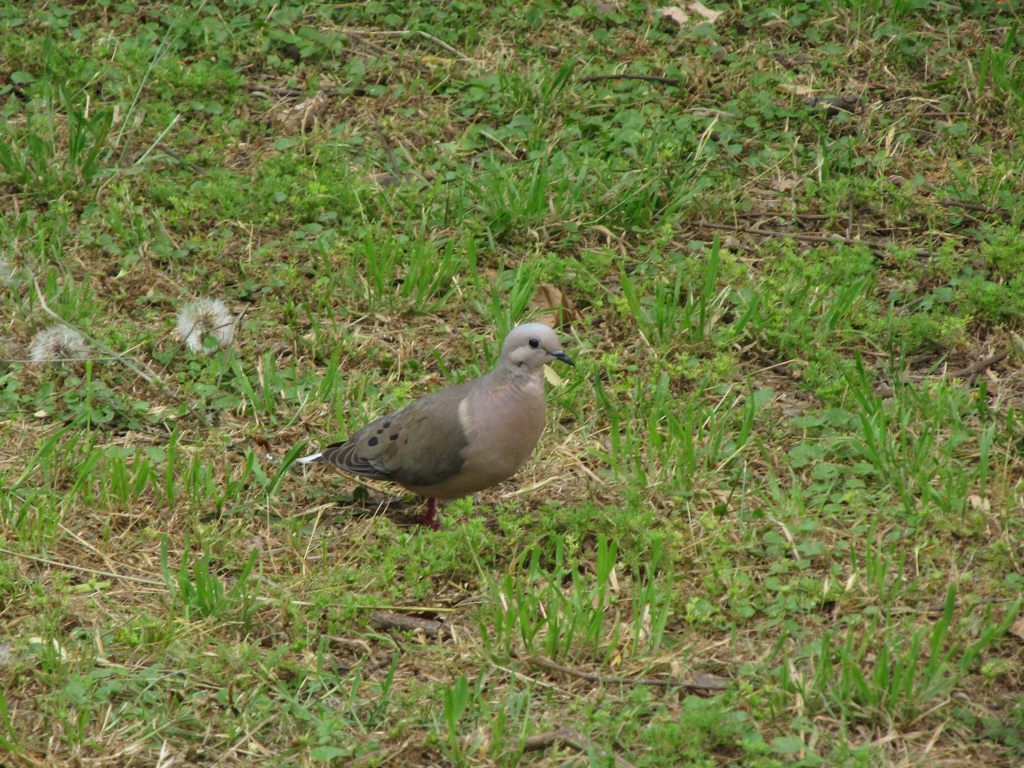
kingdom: Animalia
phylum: Chordata
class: Aves
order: Columbiformes
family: Columbidae
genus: Zenaida
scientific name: Zenaida auriculata
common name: Eared dove
